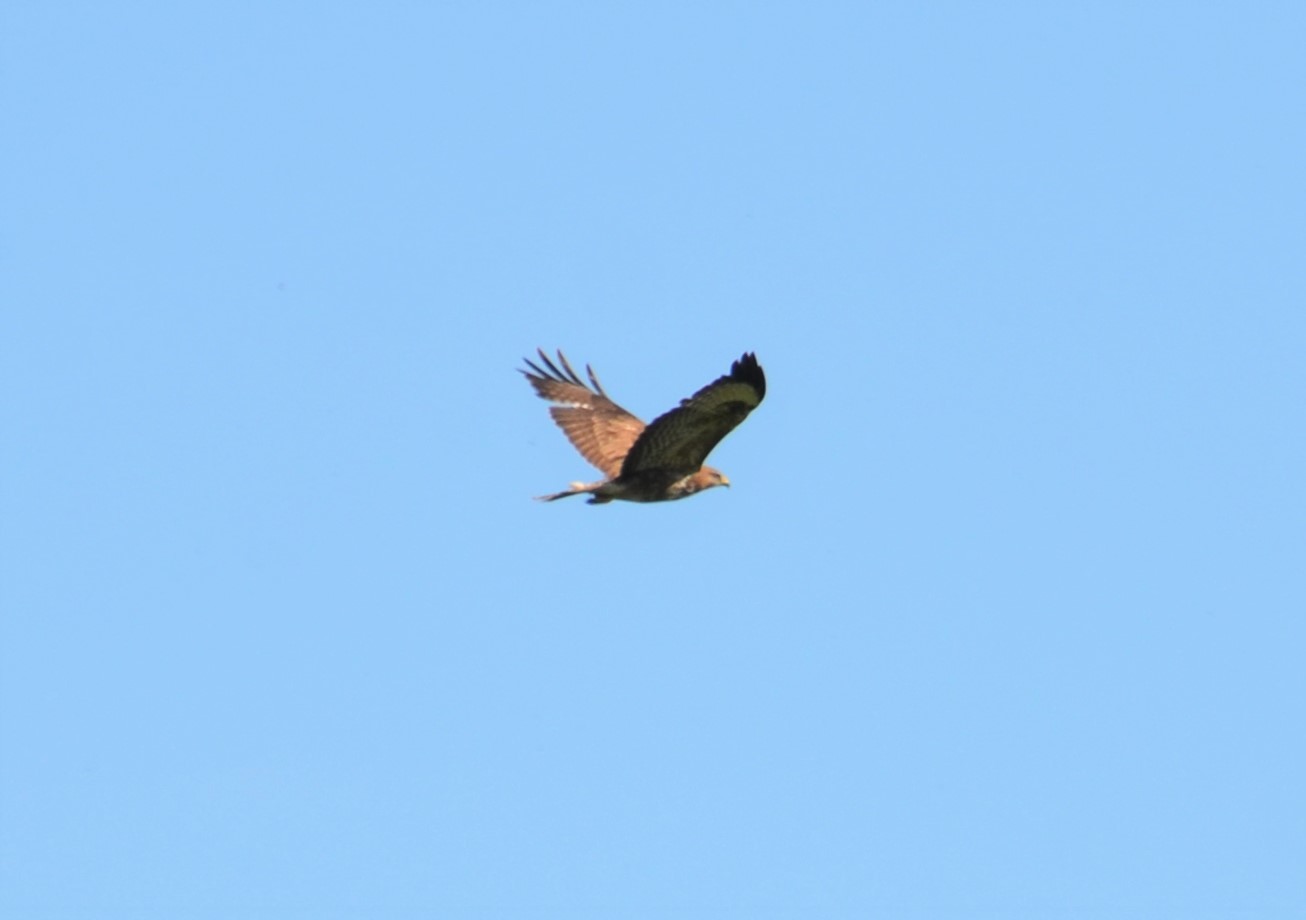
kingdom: Animalia
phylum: Chordata
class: Aves
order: Accipitriformes
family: Accipitridae
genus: Buteo
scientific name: Buteo buteo
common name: Common buzzard
